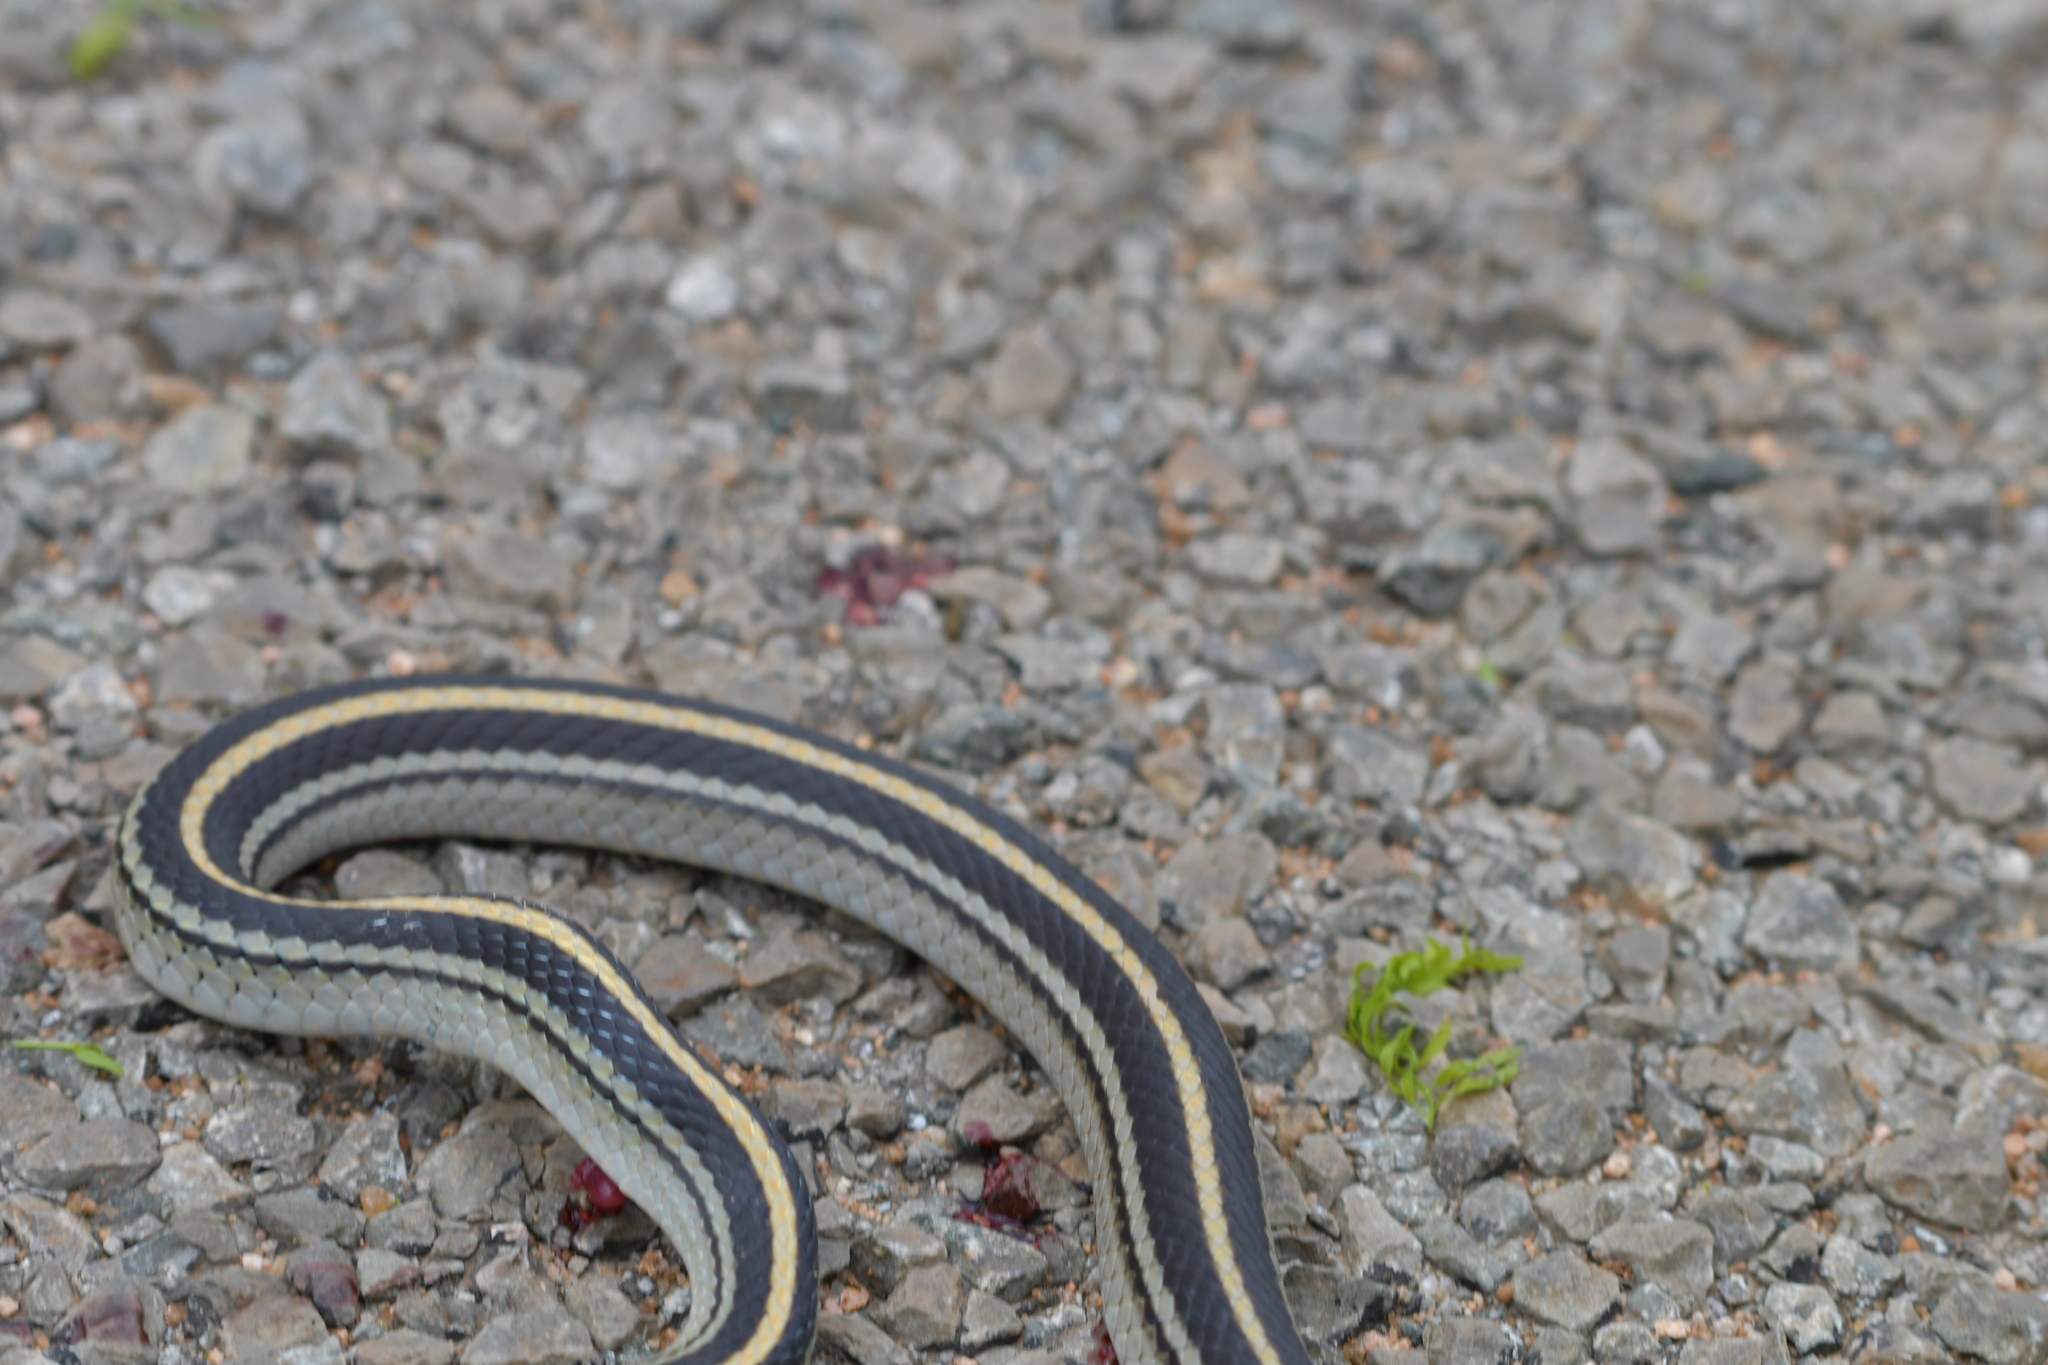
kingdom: Animalia
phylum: Chordata
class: Squamata
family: Colubridae
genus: Salvadora
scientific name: Salvadora lineata
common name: Texas patchnose snake
